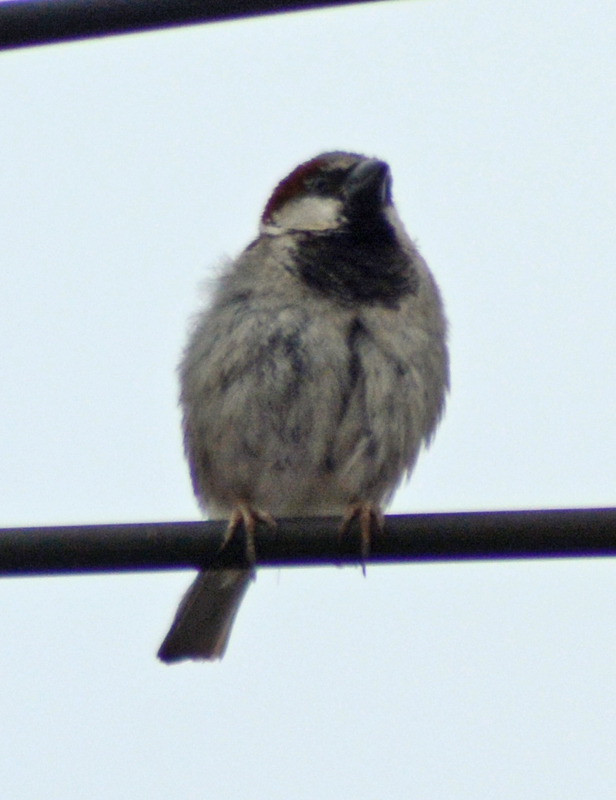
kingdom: Animalia
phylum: Chordata
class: Aves
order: Passeriformes
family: Passeridae
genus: Passer
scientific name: Passer domesticus
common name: House sparrow
